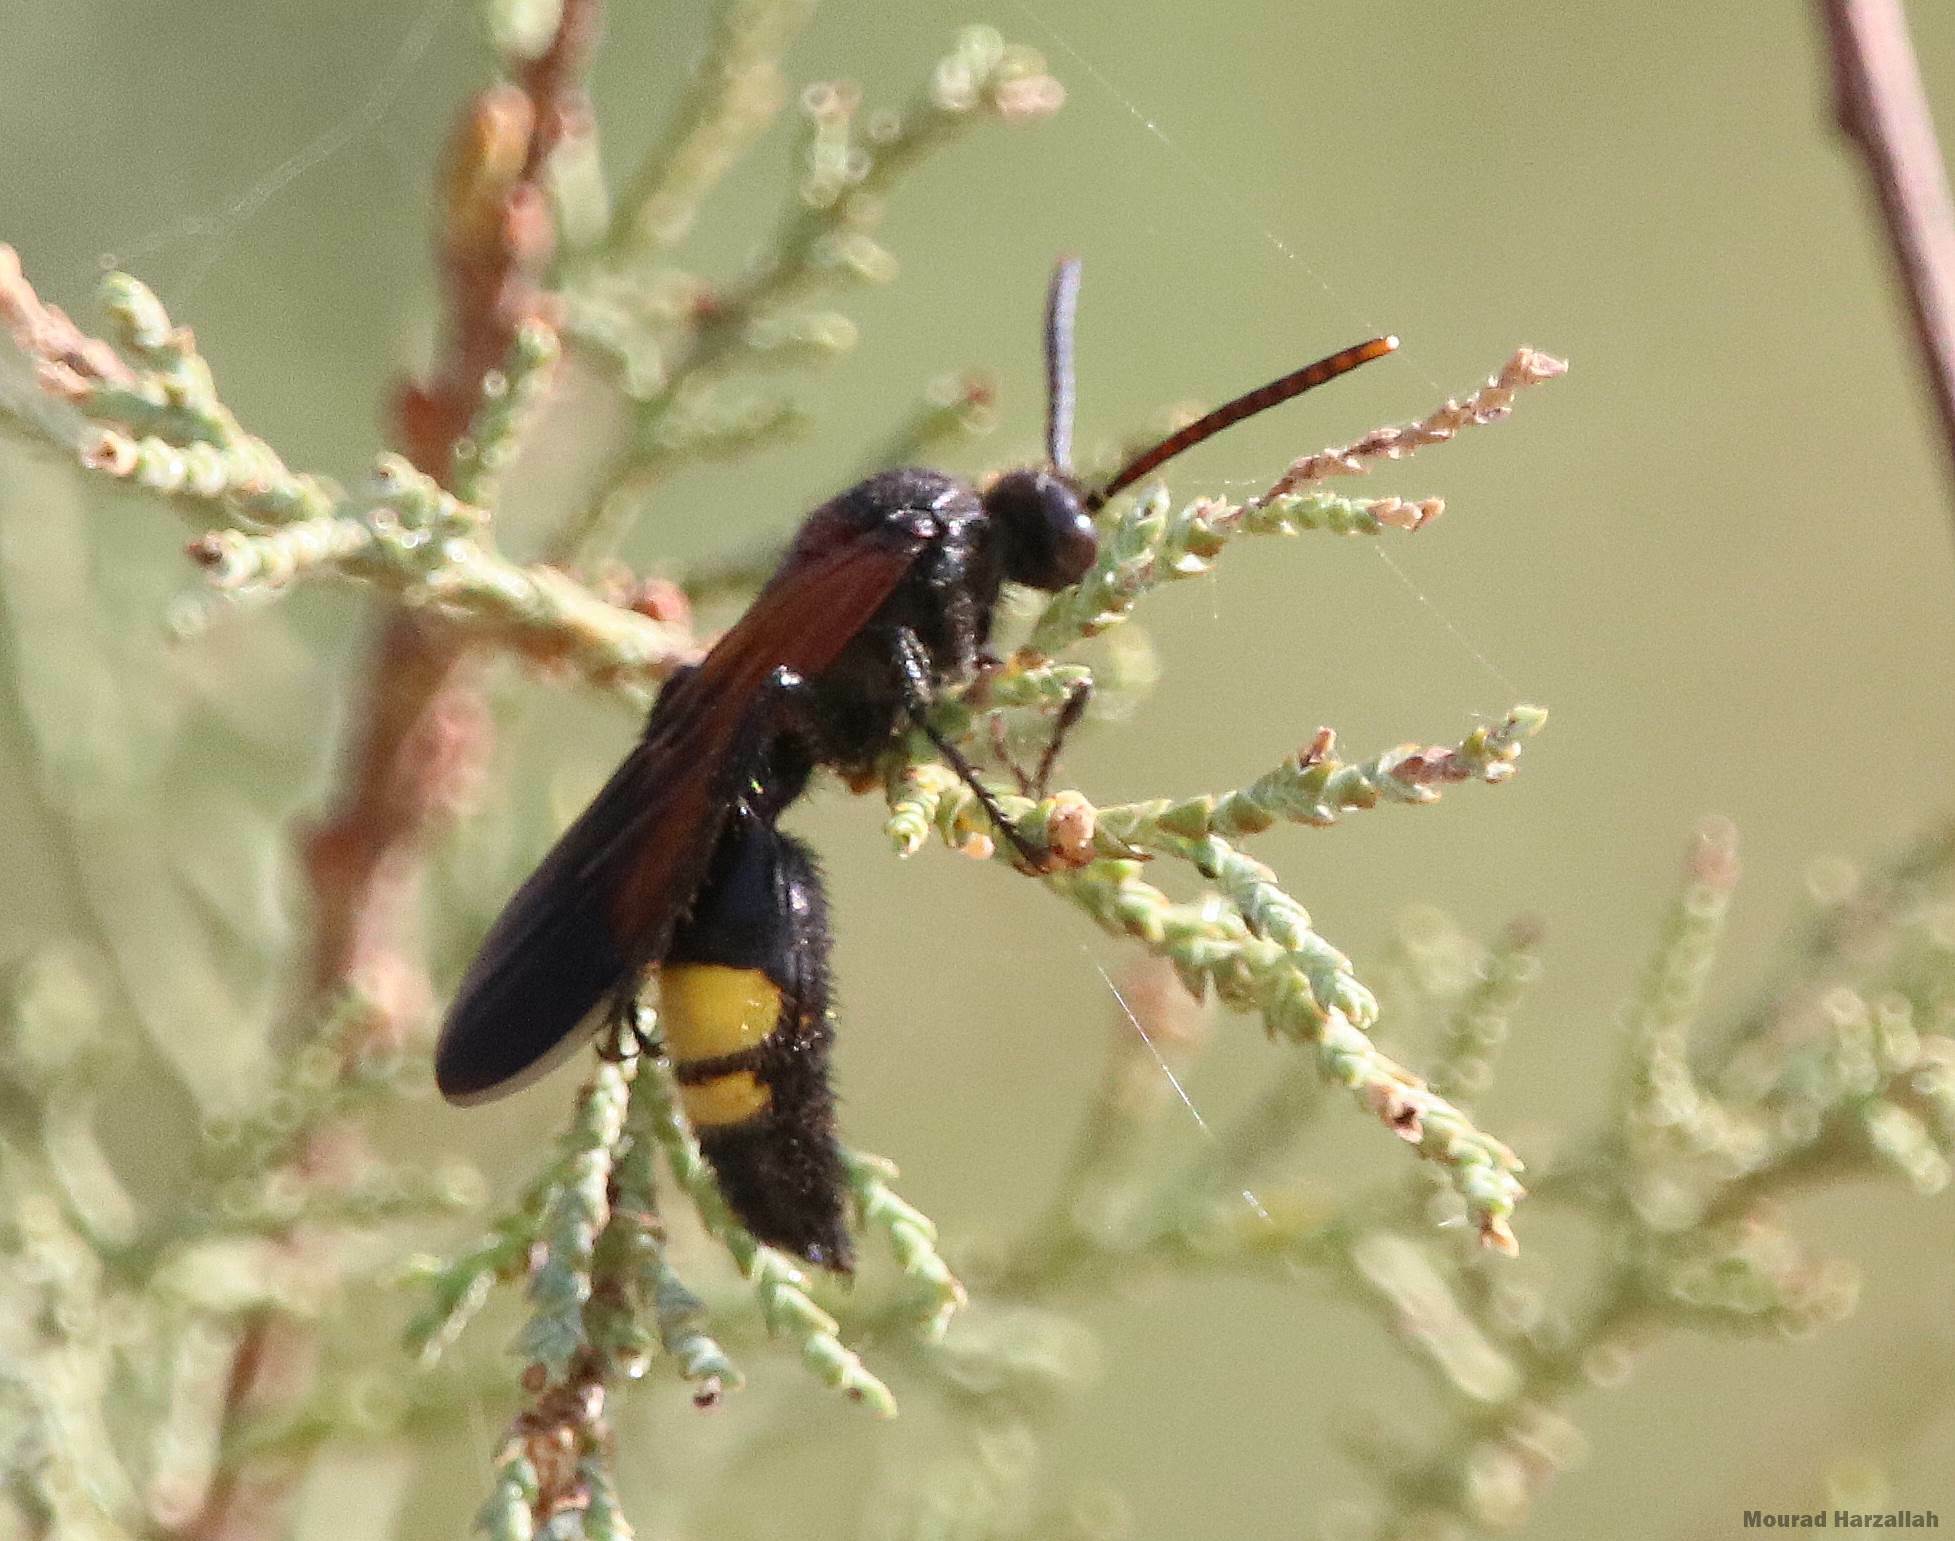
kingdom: Animalia
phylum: Arthropoda
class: Insecta
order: Hymenoptera
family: Scoliidae
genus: Scolia
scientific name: Scolia hirta
